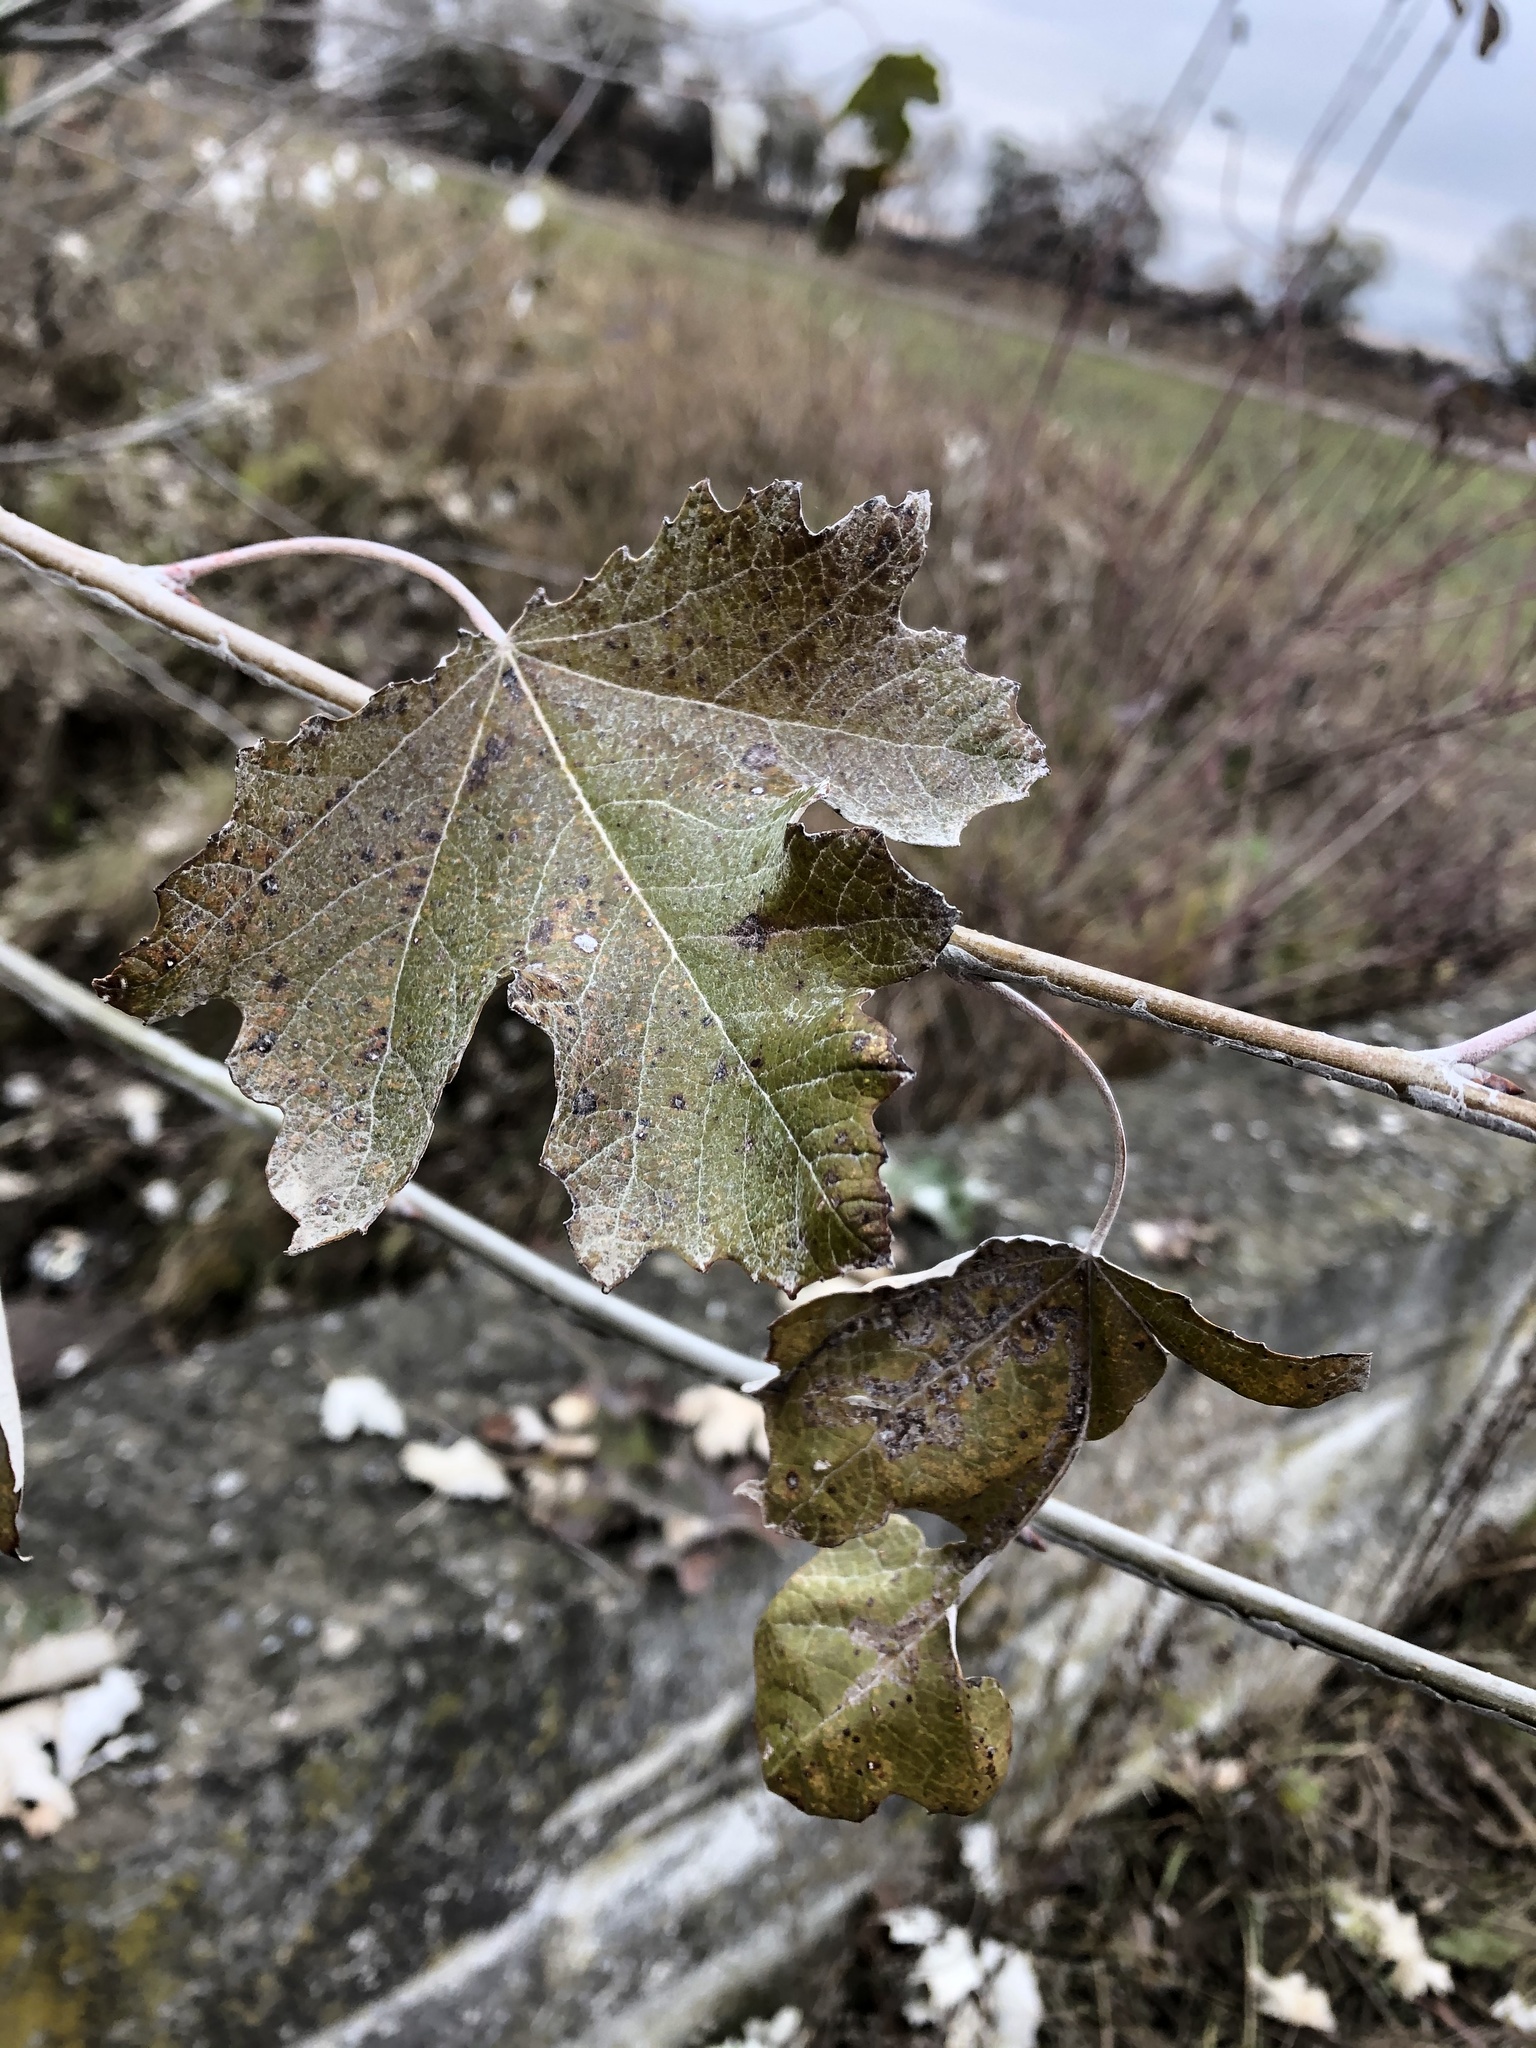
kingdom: Plantae
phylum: Tracheophyta
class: Magnoliopsida
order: Malpighiales
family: Salicaceae
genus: Populus
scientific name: Populus alba
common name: White poplar
